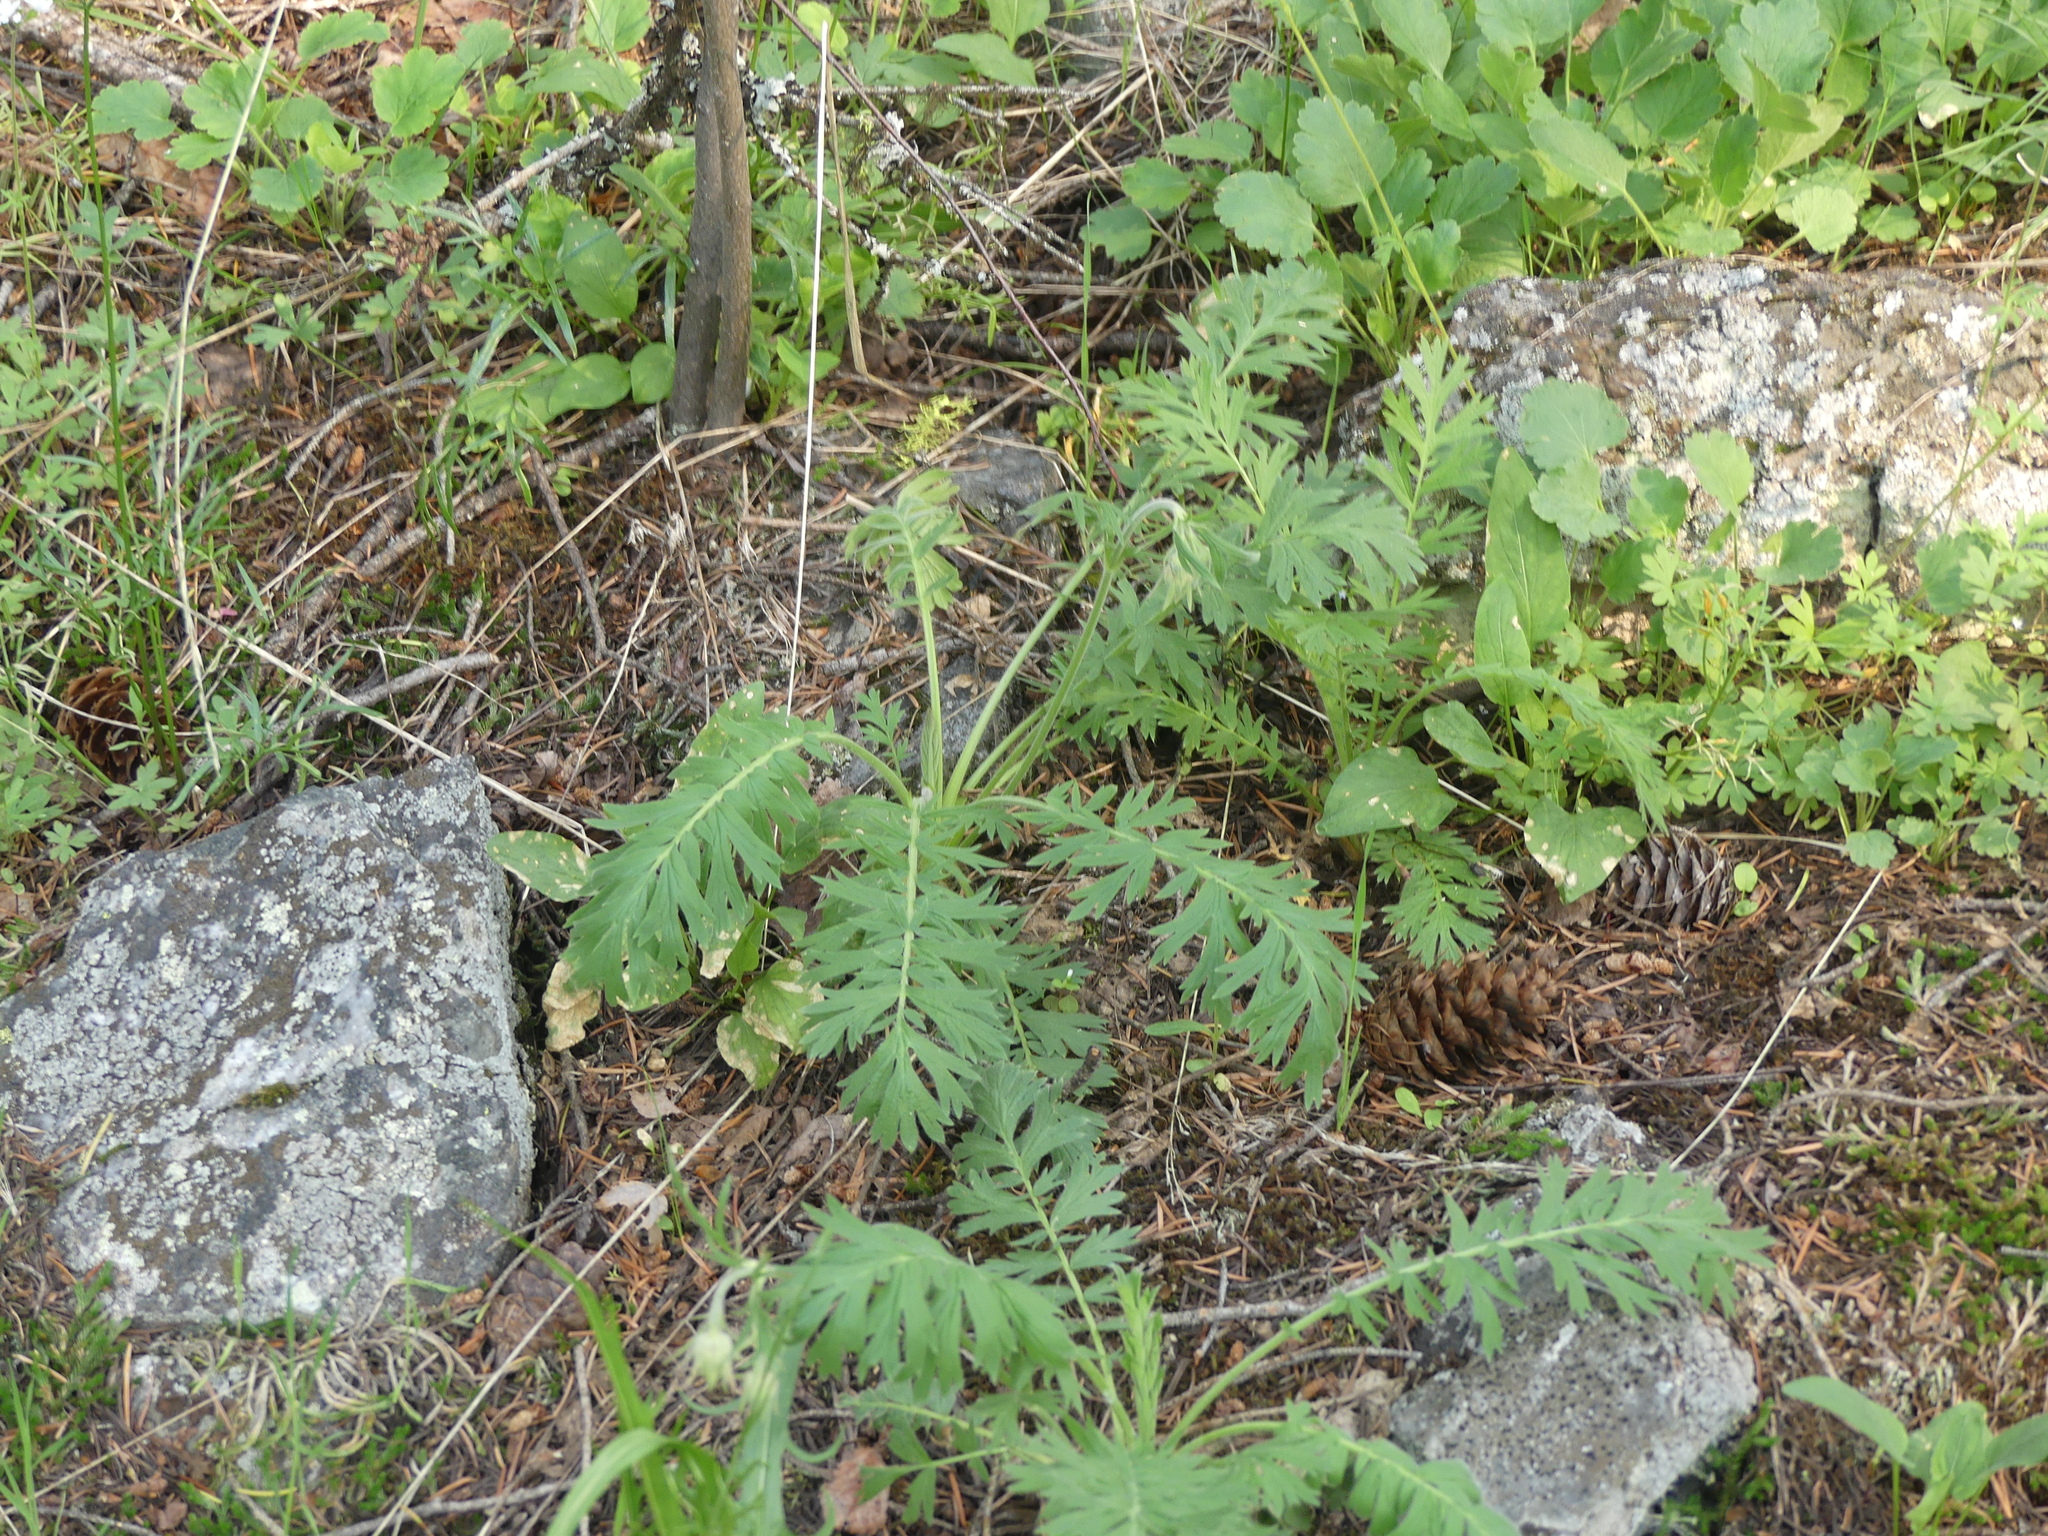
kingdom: Plantae
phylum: Tracheophyta
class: Magnoliopsida
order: Rosales
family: Rosaceae
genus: Geum
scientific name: Geum triflorum
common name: Old man's whiskers
